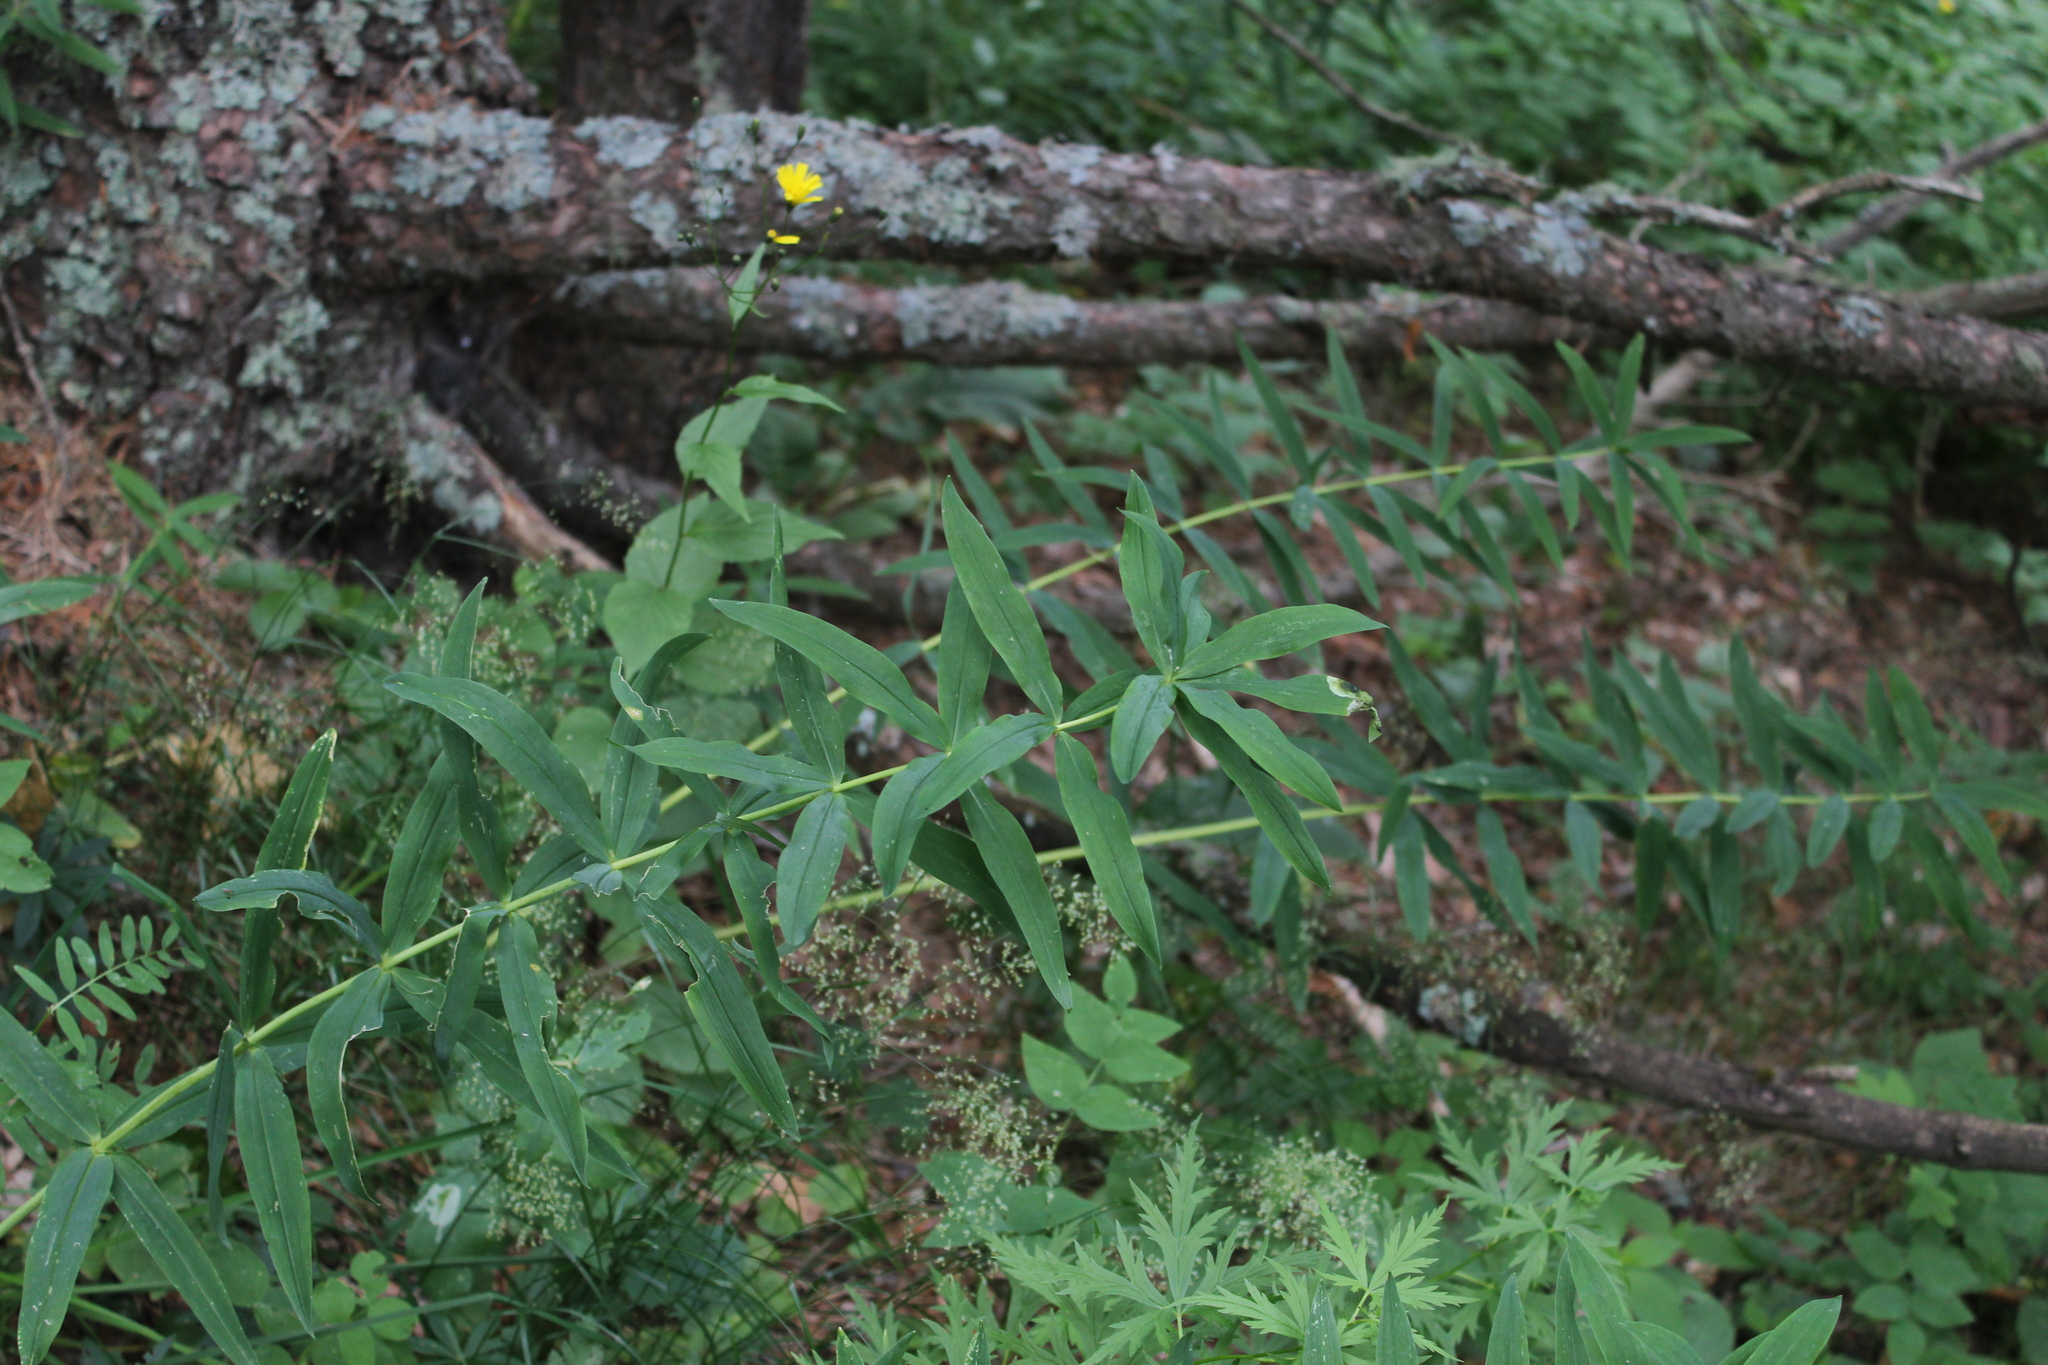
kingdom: Plantae
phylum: Tracheophyta
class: Liliopsida
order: Asparagales
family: Asparagaceae
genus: Polygonatum
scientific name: Polygonatum verticillatum
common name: Whorled solomon's-seal
